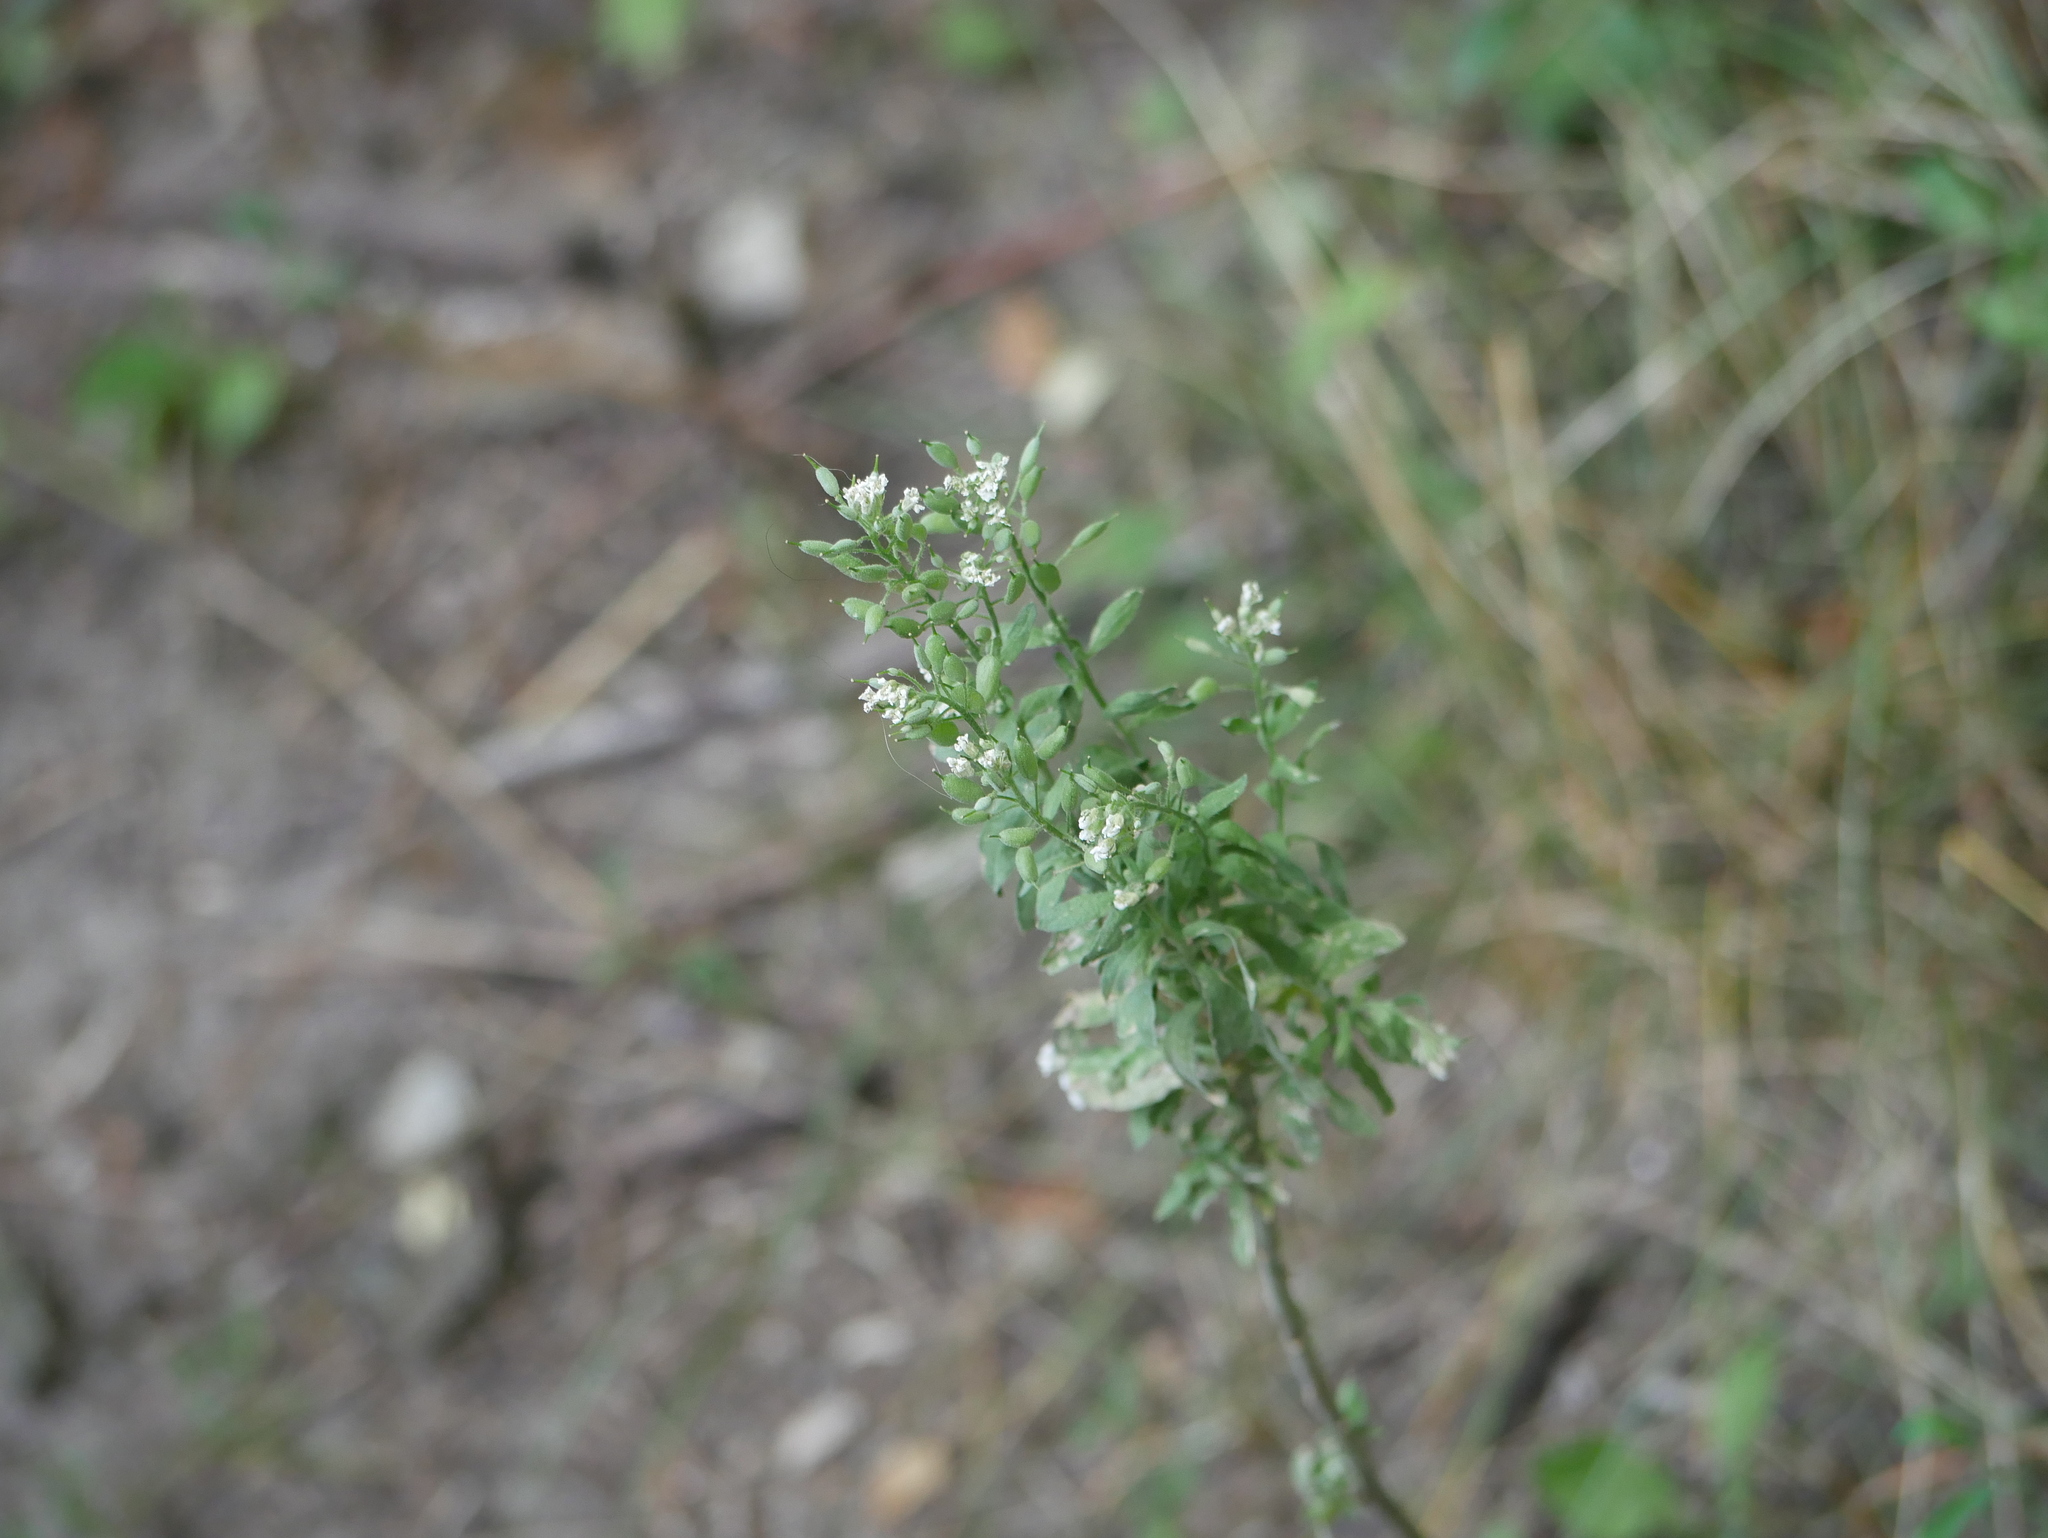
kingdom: Plantae
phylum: Tracheophyta
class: Magnoliopsida
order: Brassicales
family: Brassicaceae
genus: Berteroa
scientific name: Berteroa incana
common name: Hoary alison
